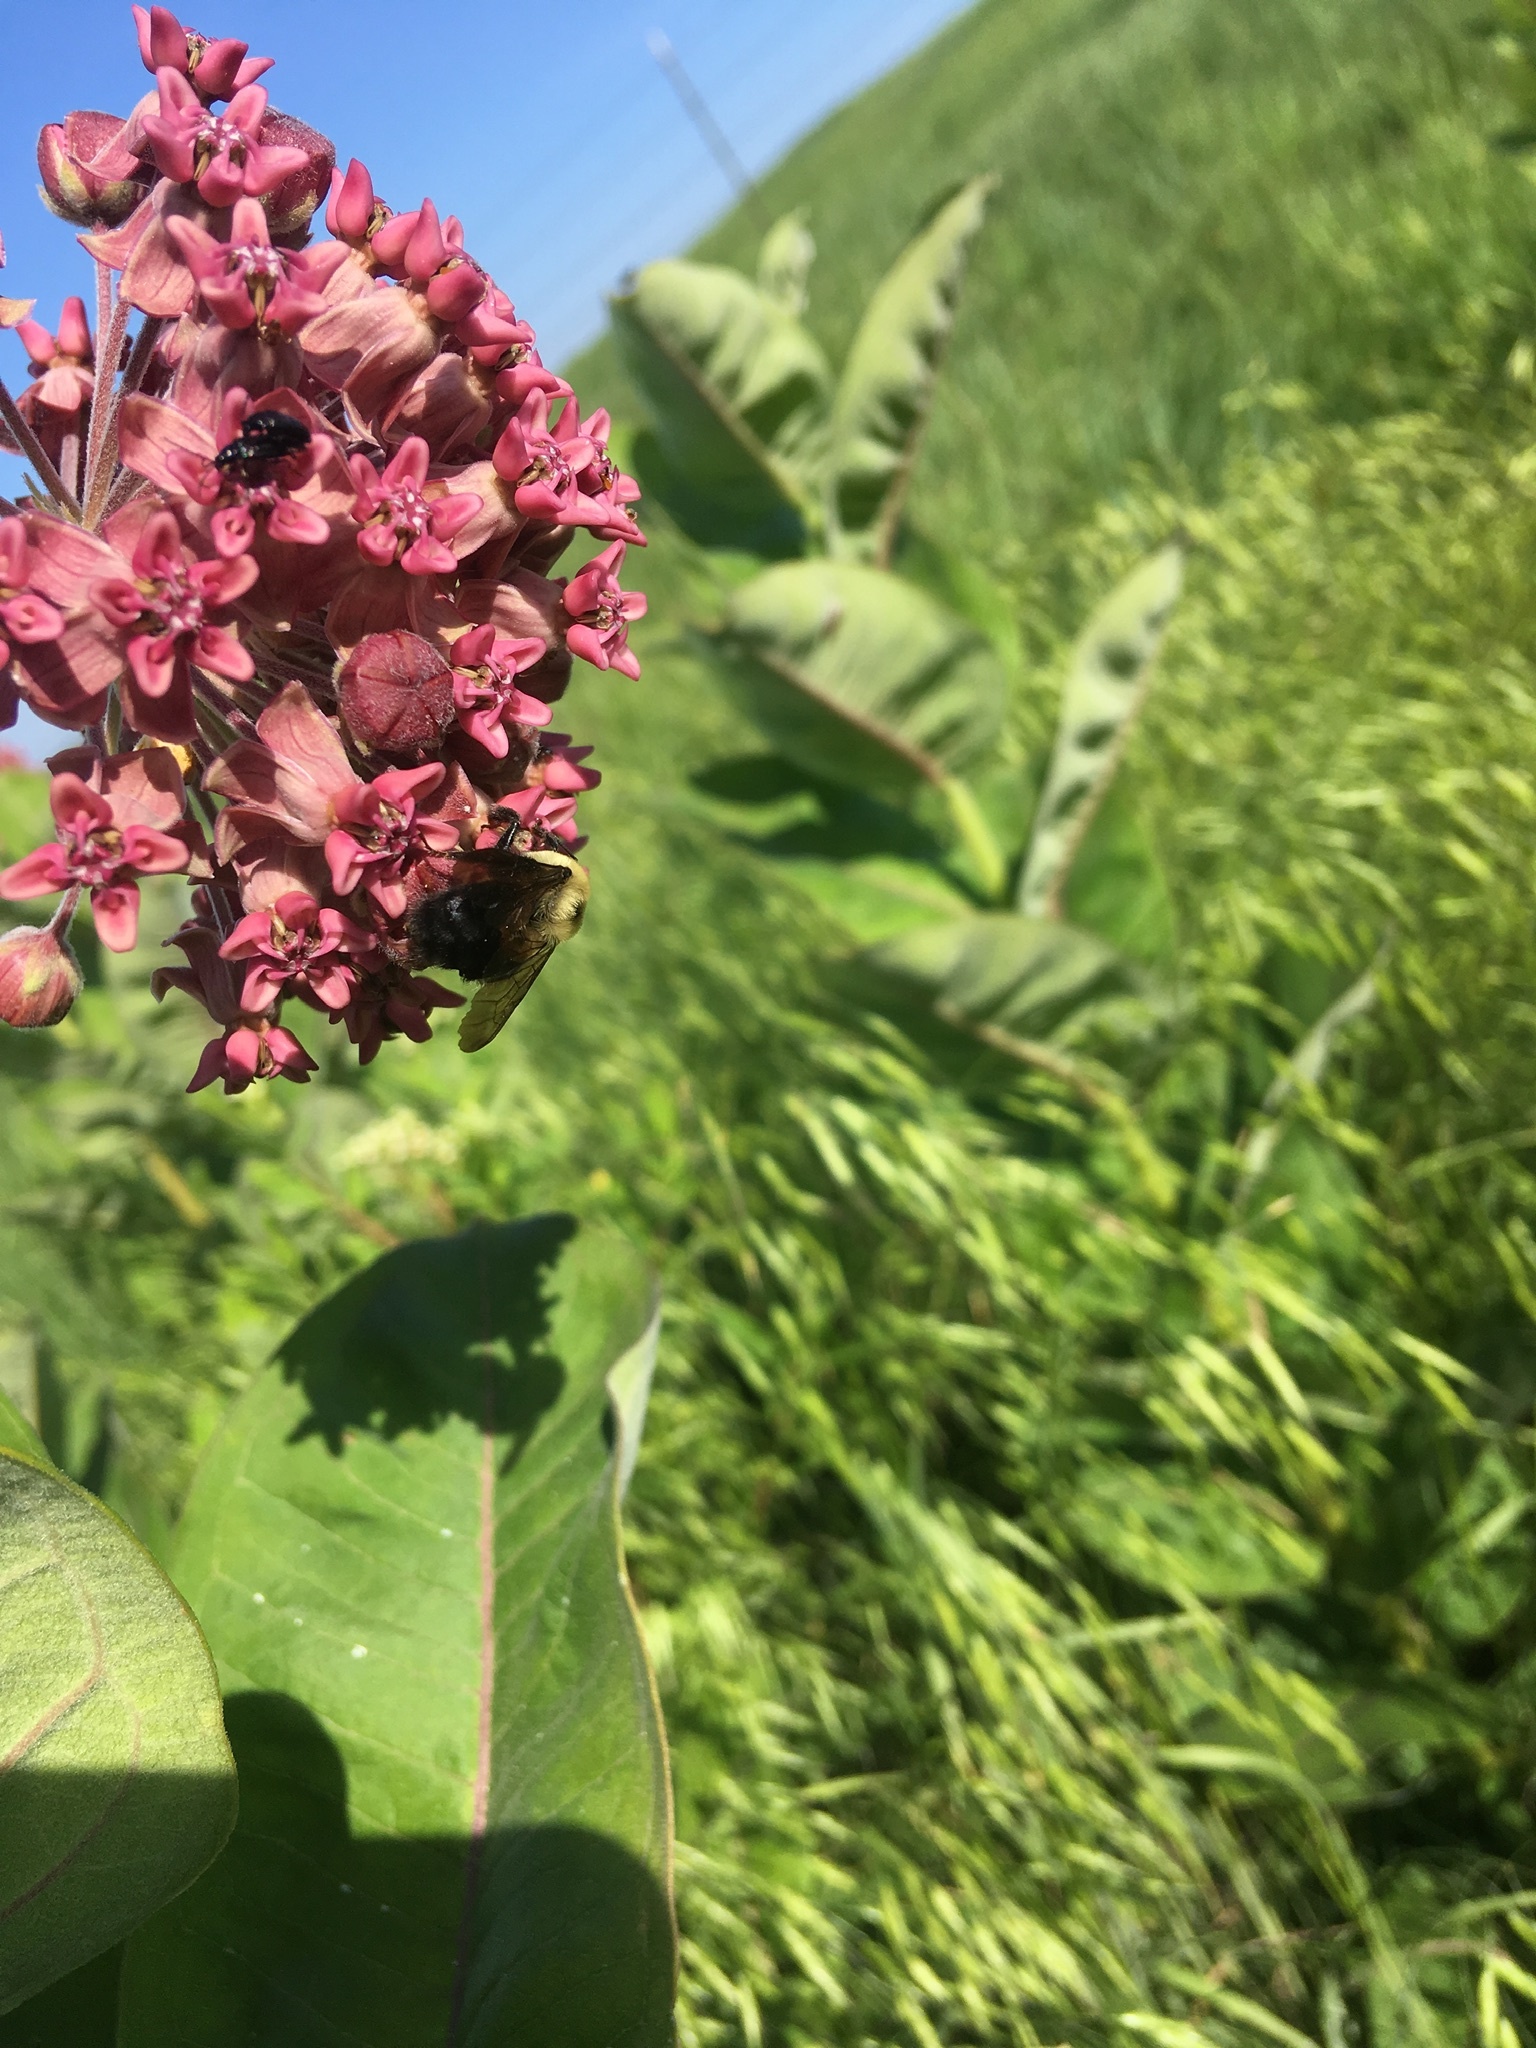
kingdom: Animalia
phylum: Arthropoda
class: Insecta
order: Hymenoptera
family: Apidae
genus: Bombus
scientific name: Bombus griseocollis
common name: Brown-belted bumble bee
